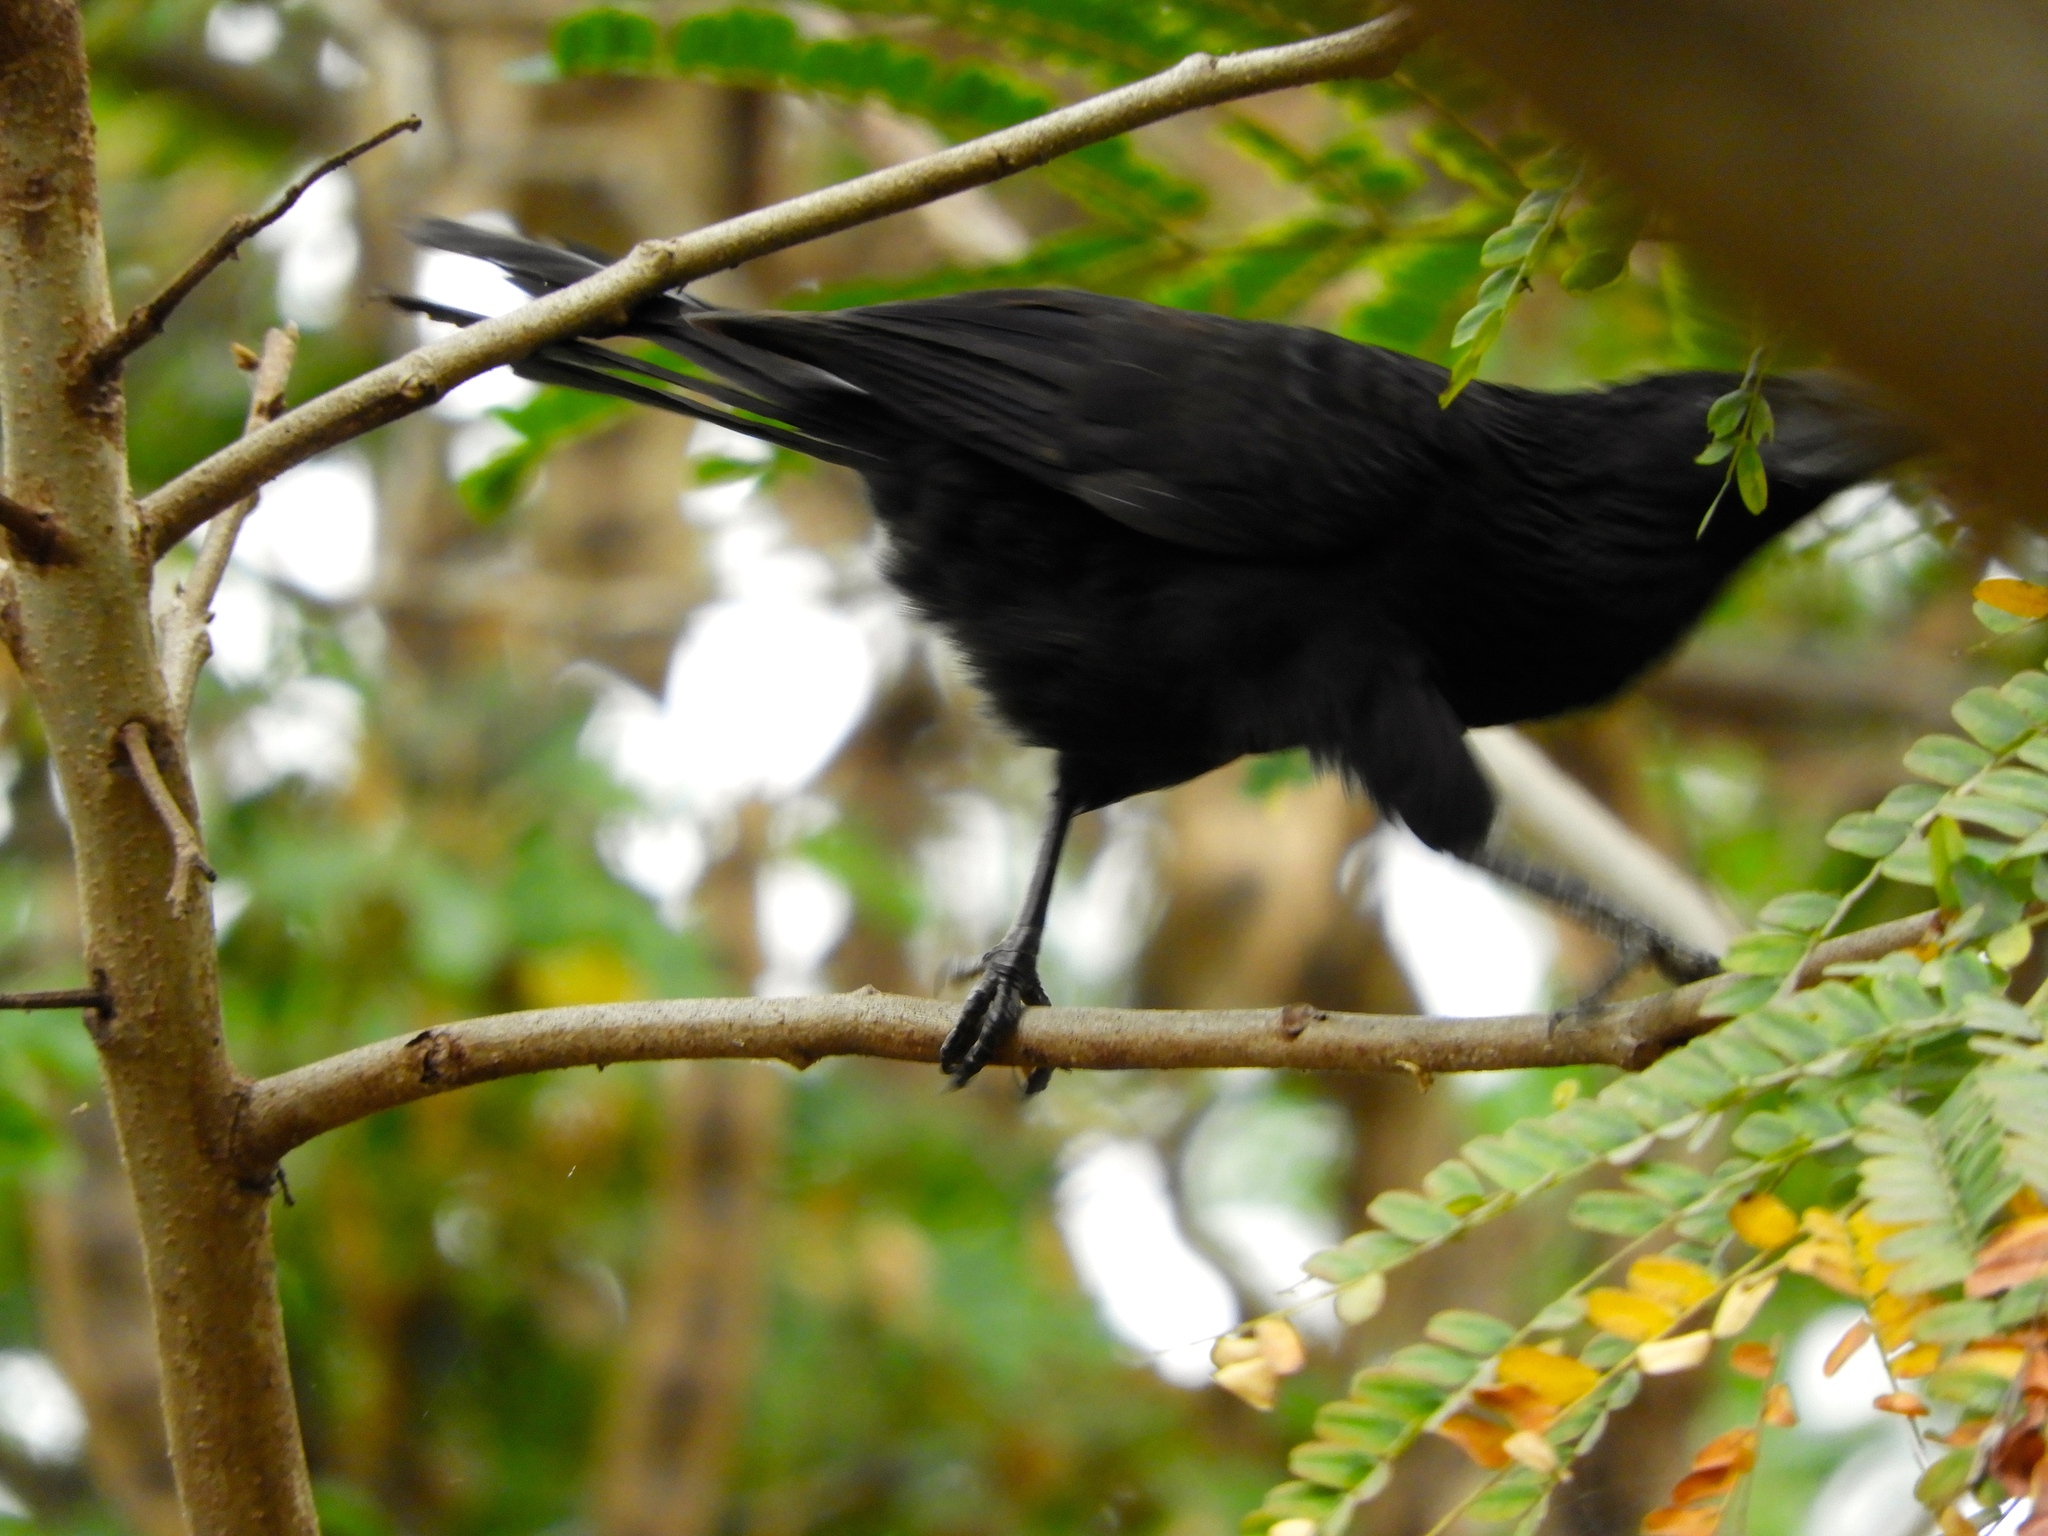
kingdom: Animalia
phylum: Chordata
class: Aves
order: Cuculiformes
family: Cuculidae
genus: Crotophaga
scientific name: Crotophaga sulcirostris
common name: Groove-billed ani
